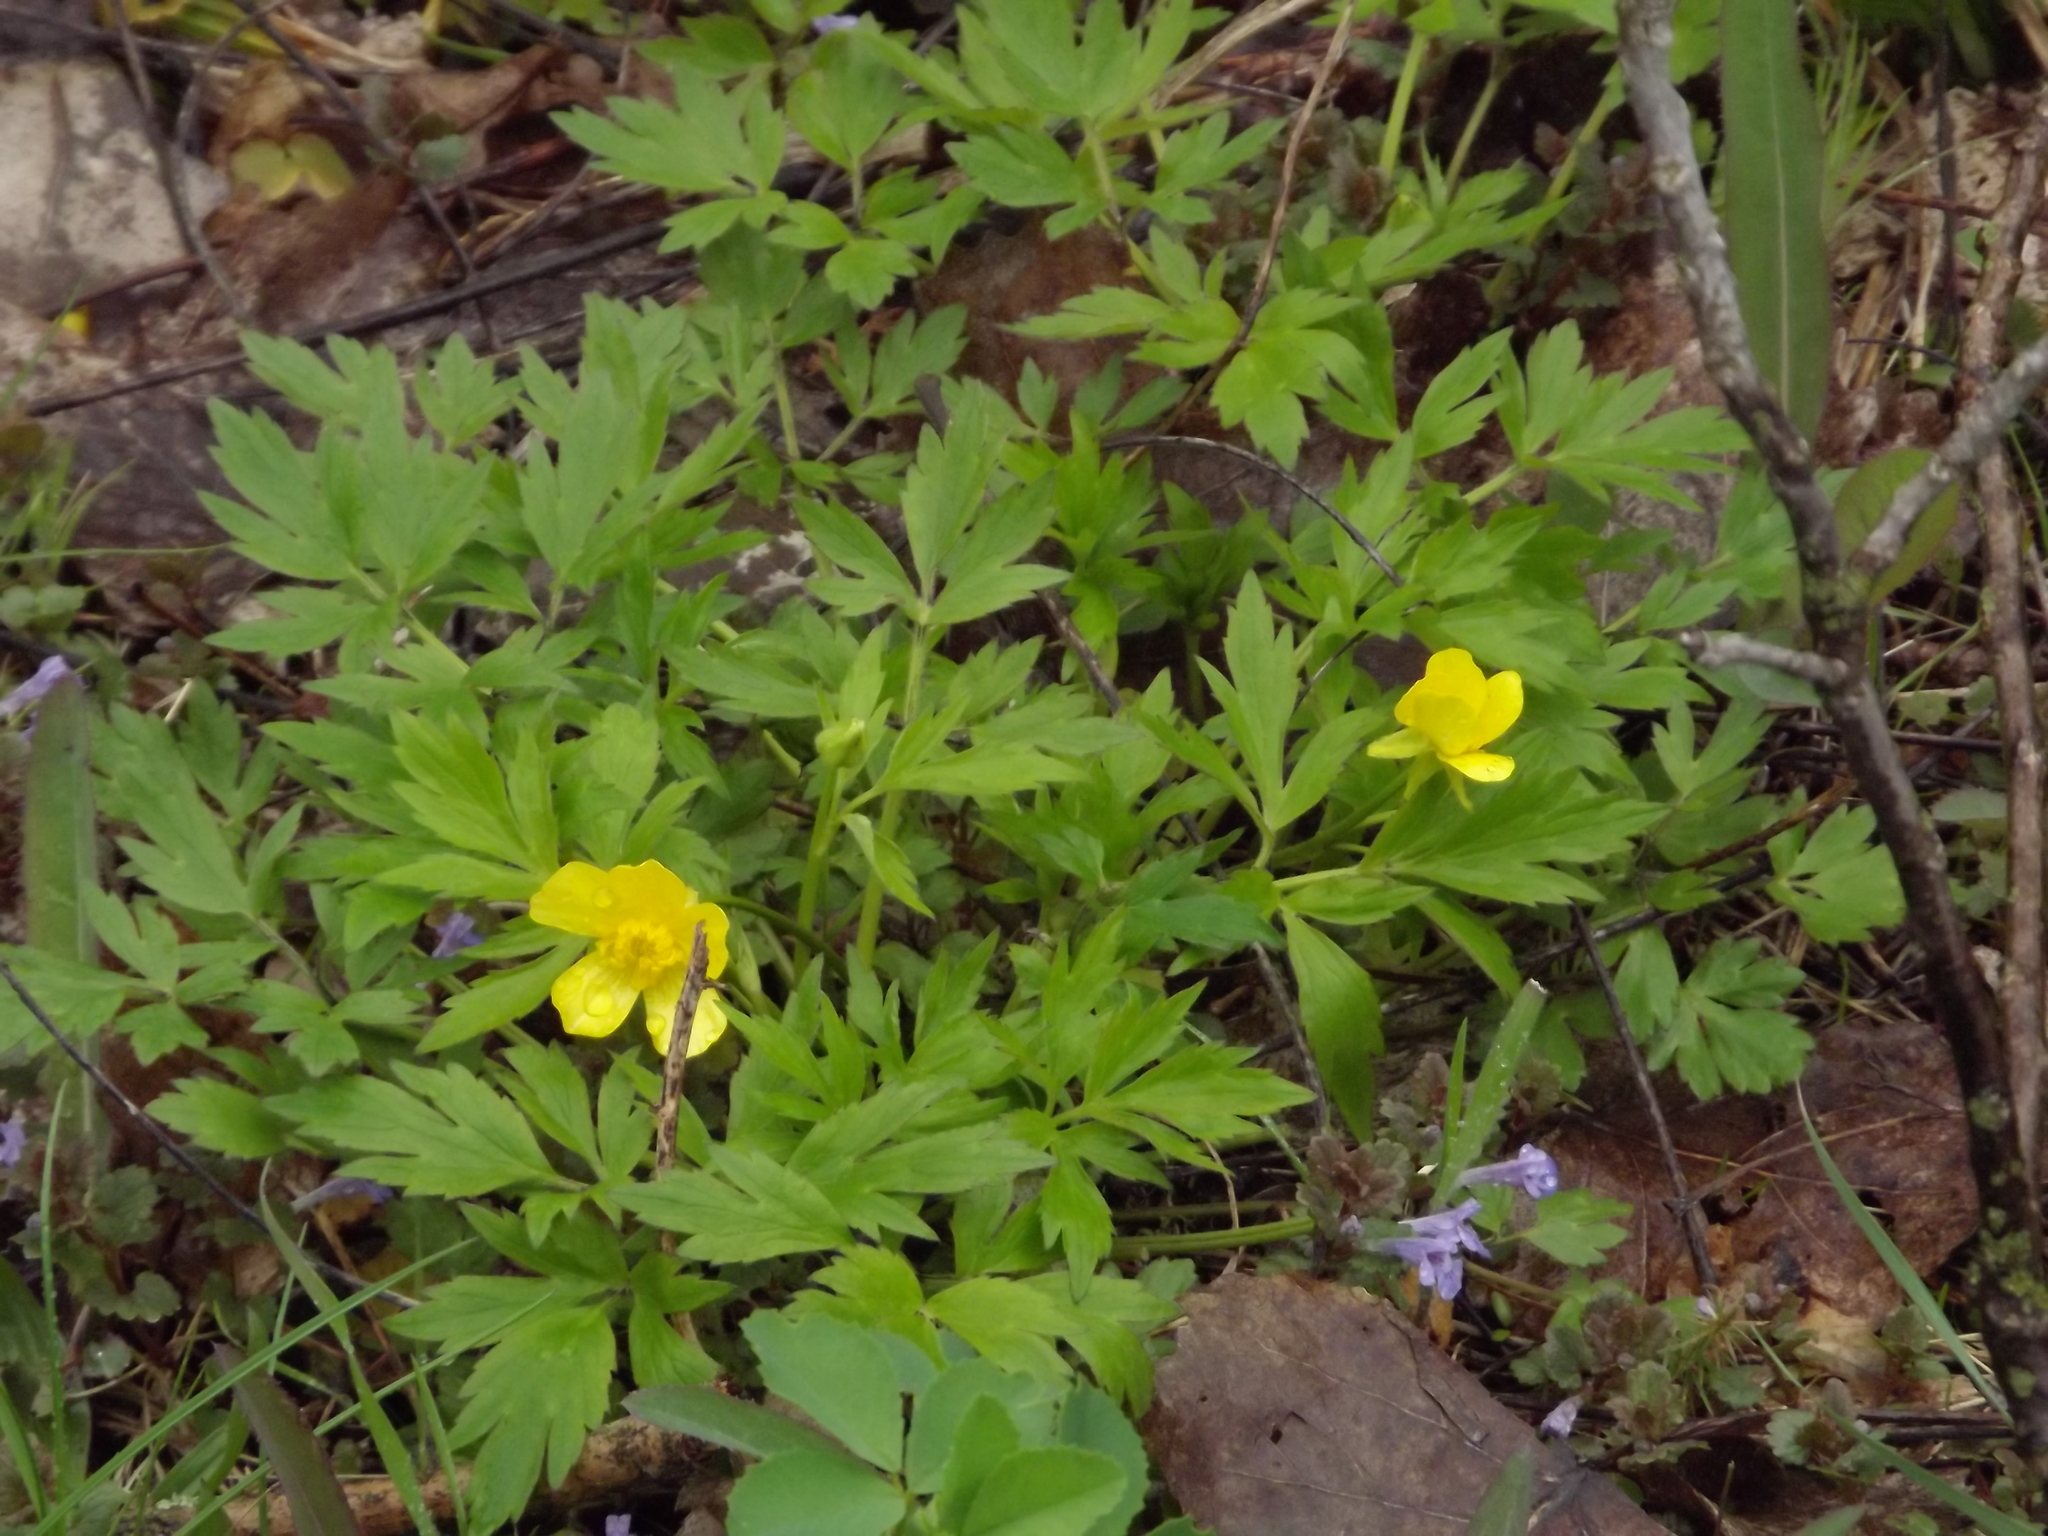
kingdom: Plantae
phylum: Tracheophyta
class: Magnoliopsida
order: Ranunculales
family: Ranunculaceae
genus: Ranunculus
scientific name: Ranunculus hispidus
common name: Bristly buttercup
